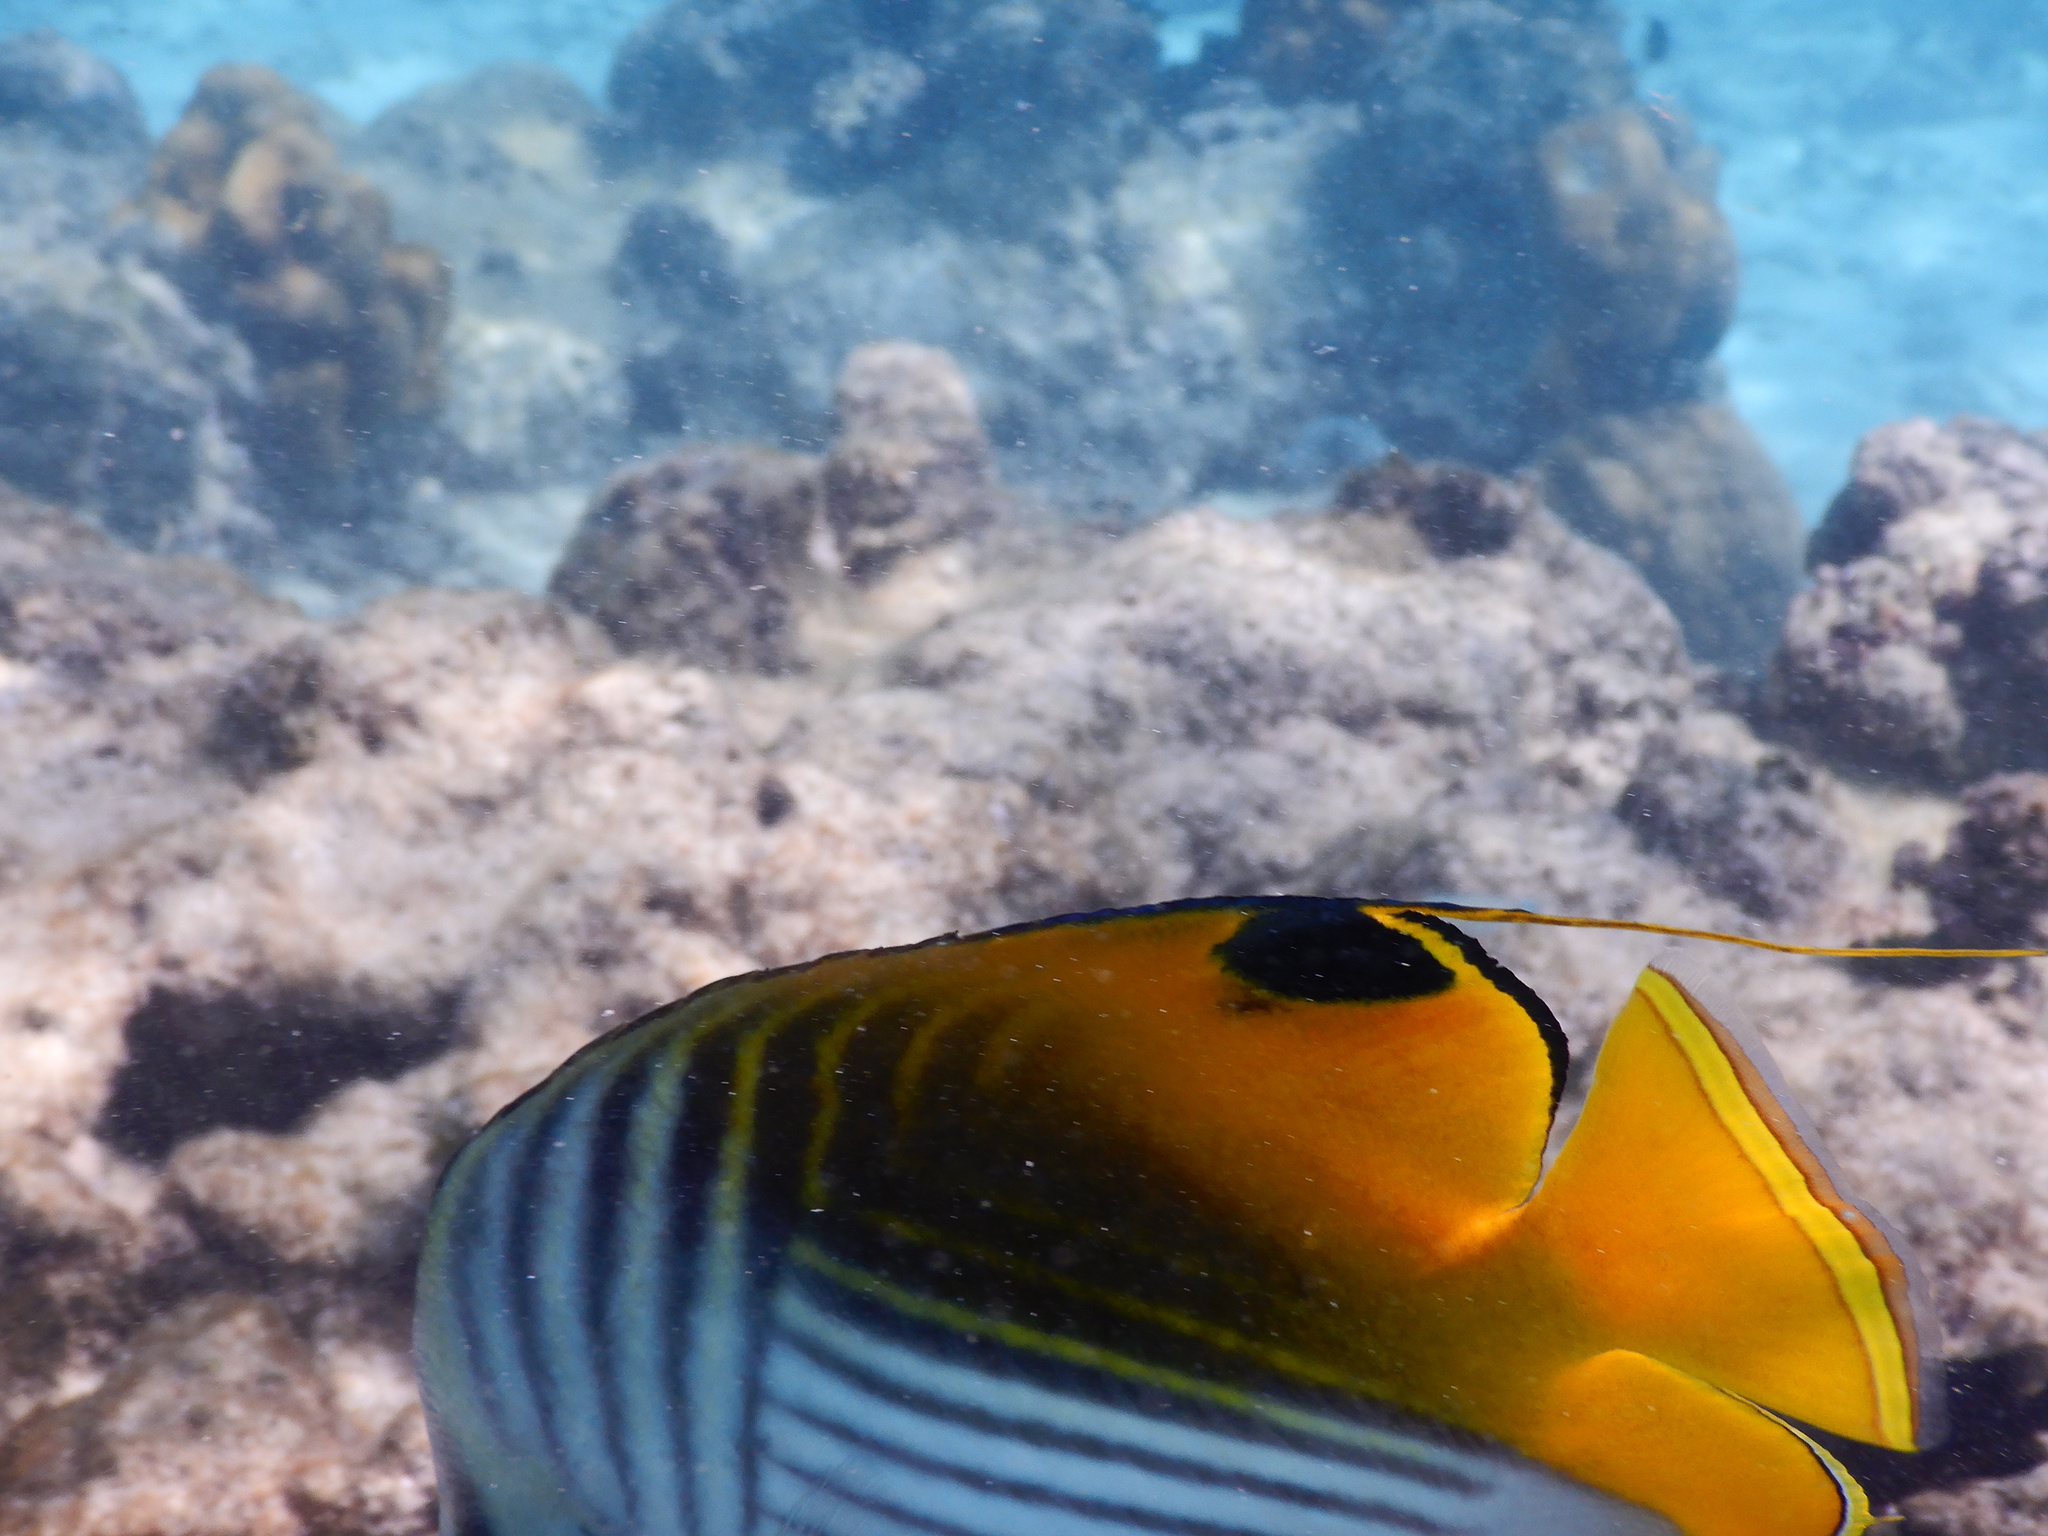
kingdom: Animalia
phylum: Chordata
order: Perciformes
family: Chaetodontidae
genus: Chaetodon
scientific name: Chaetodon auriga
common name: Threadfin butterflyfish
